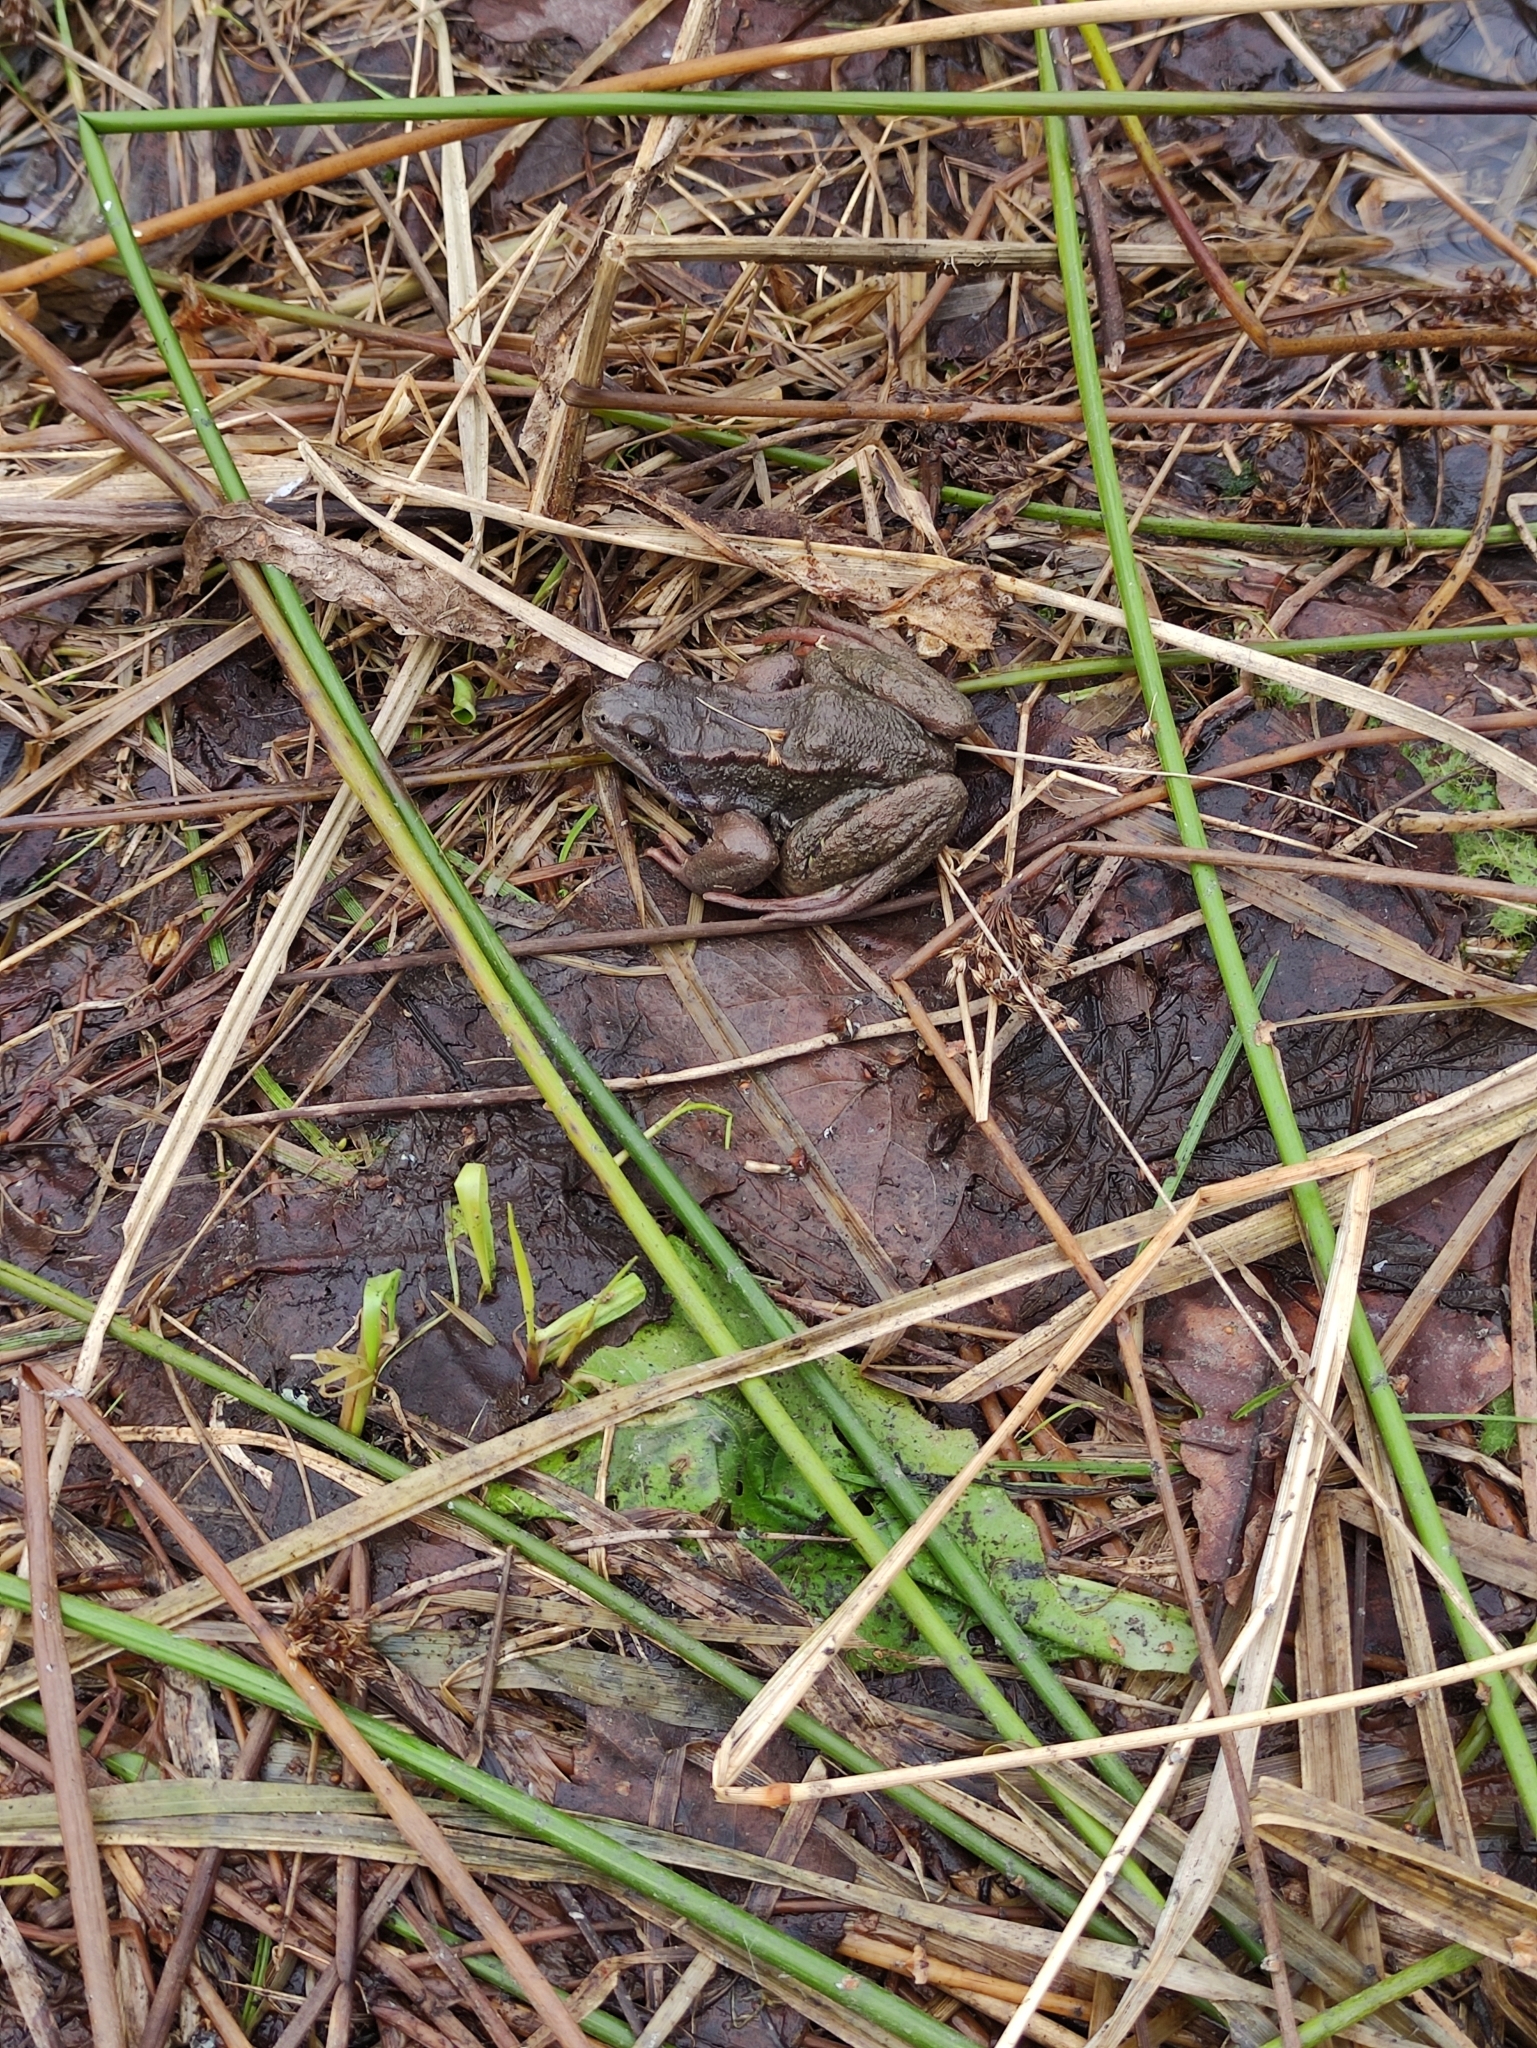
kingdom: Animalia
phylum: Chordata
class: Amphibia
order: Anura
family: Ranidae
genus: Rana
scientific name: Rana temporaria
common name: Common frog
